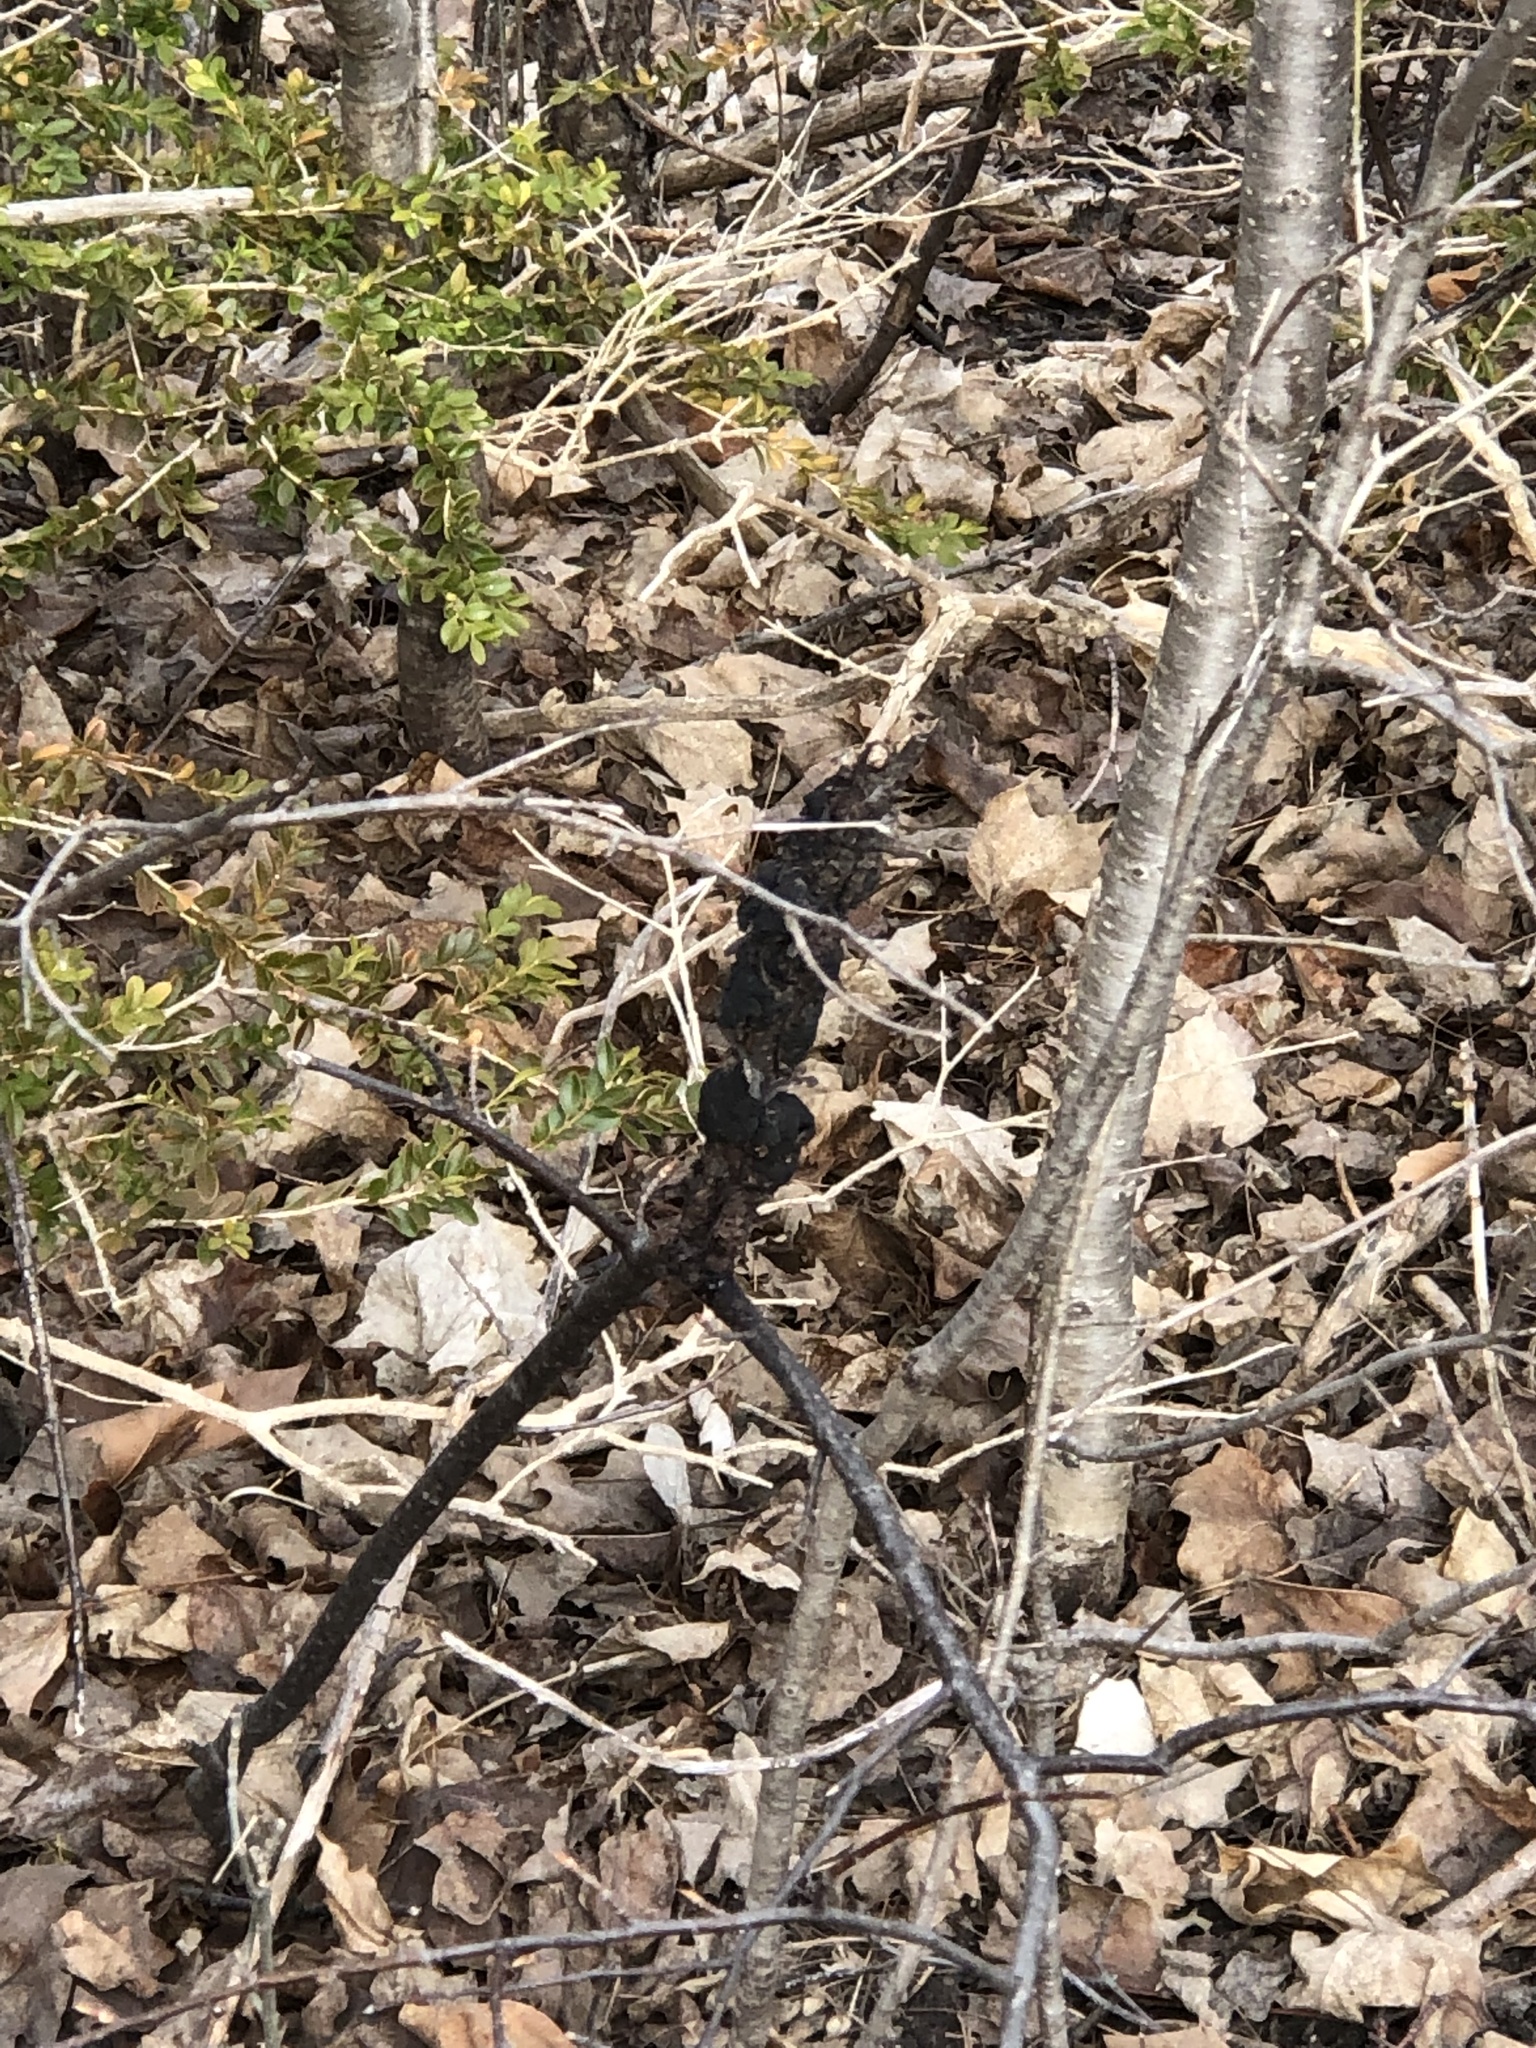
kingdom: Fungi
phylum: Ascomycota
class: Dothideomycetes
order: Venturiales
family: Venturiaceae
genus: Apiosporina
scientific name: Apiosporina morbosa
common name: Black knot
